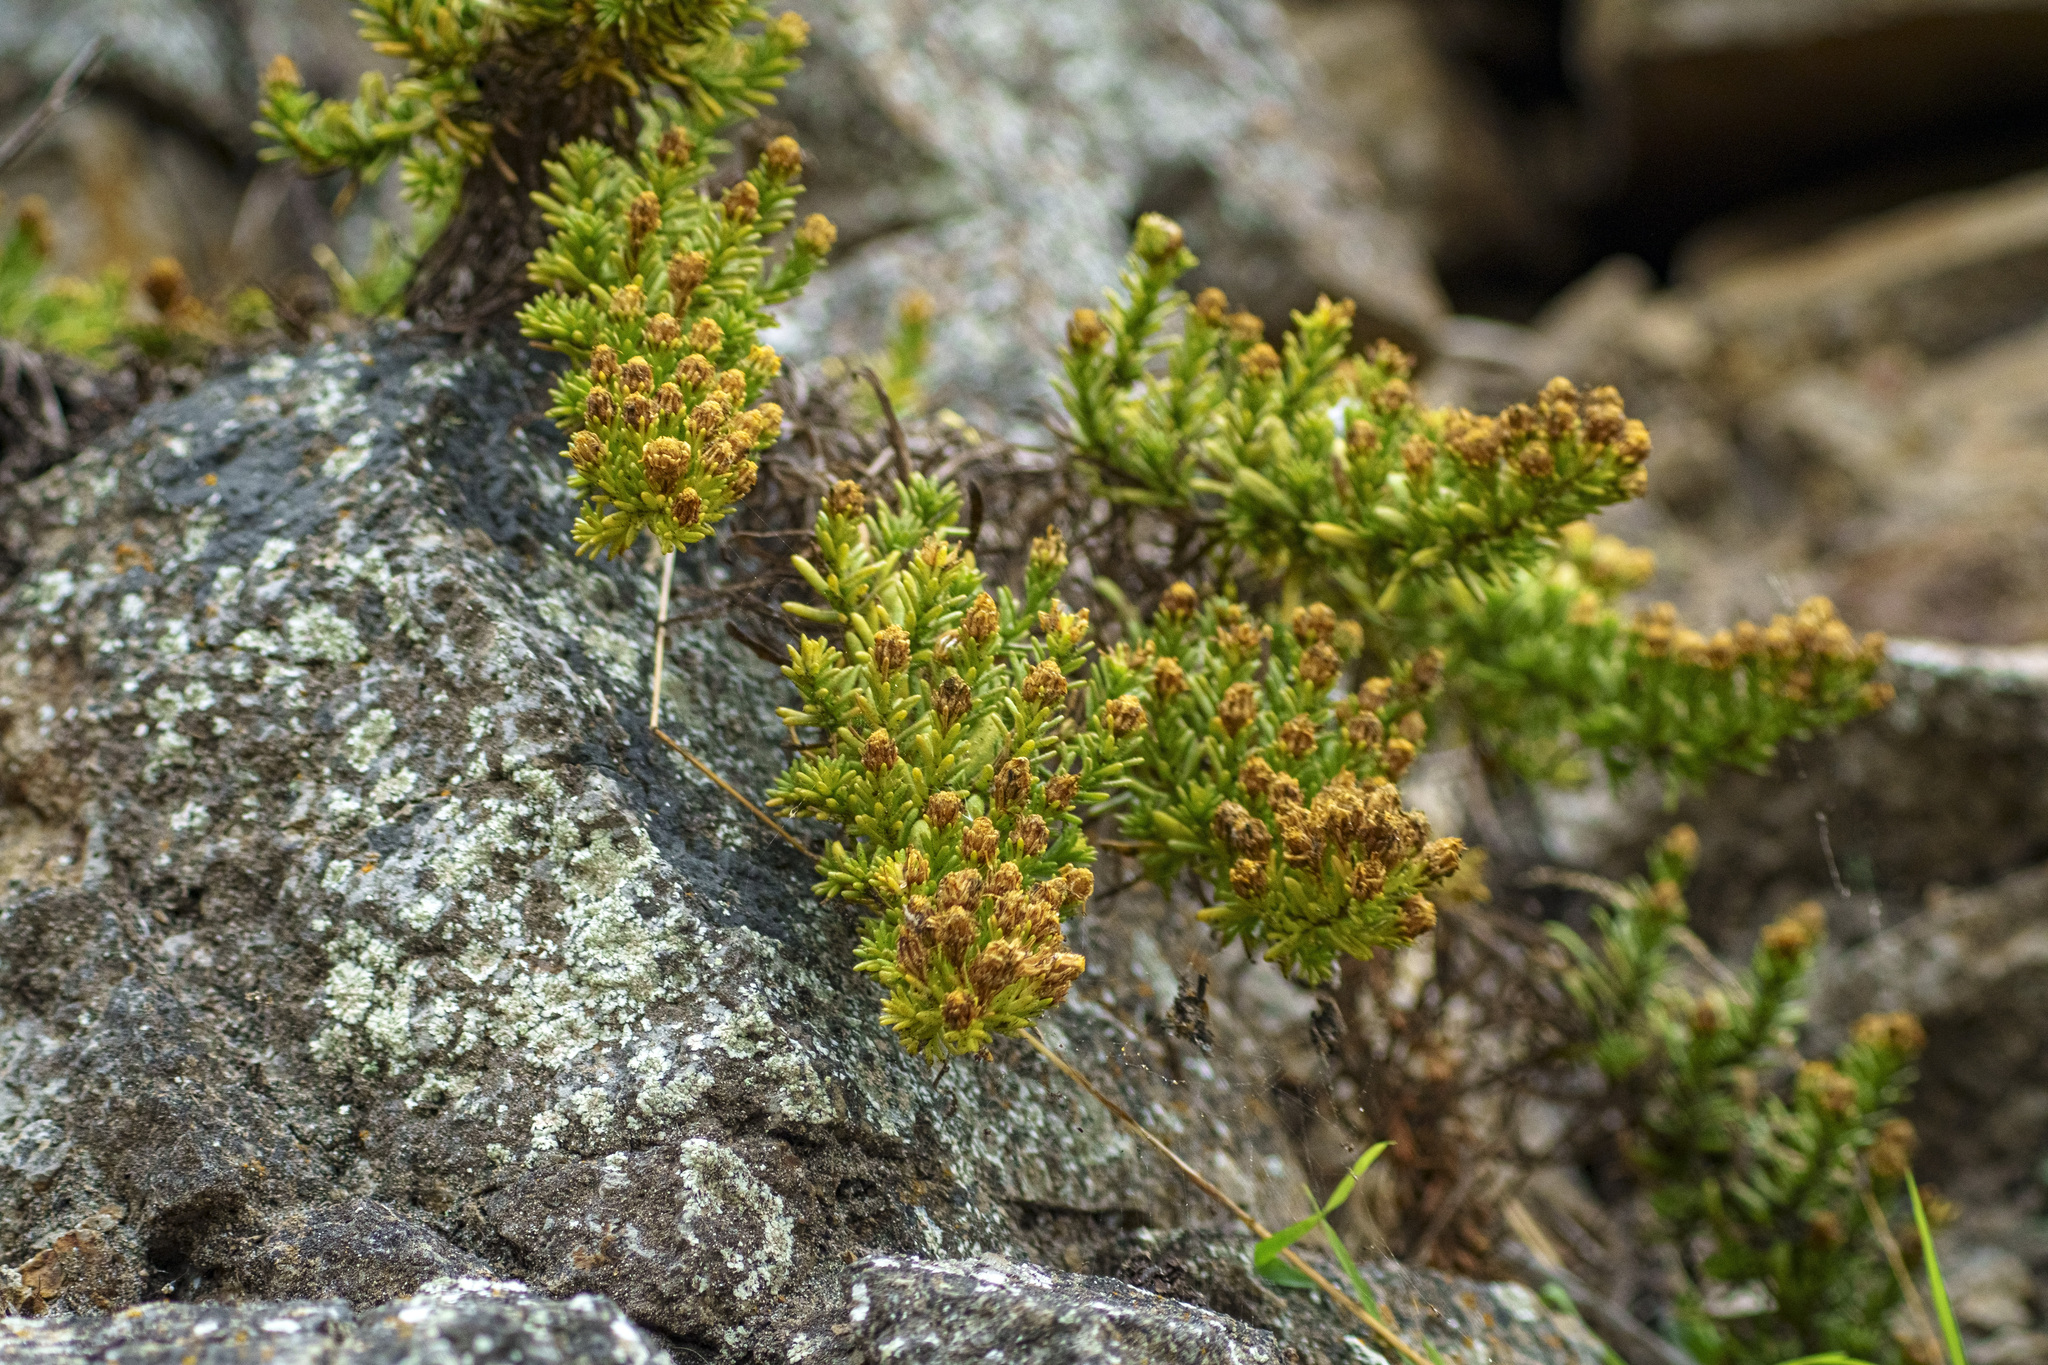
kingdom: Plantae
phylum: Tracheophyta
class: Magnoliopsida
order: Asterales
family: Asteraceae
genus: Deinandra
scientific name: Deinandra peninsularis
